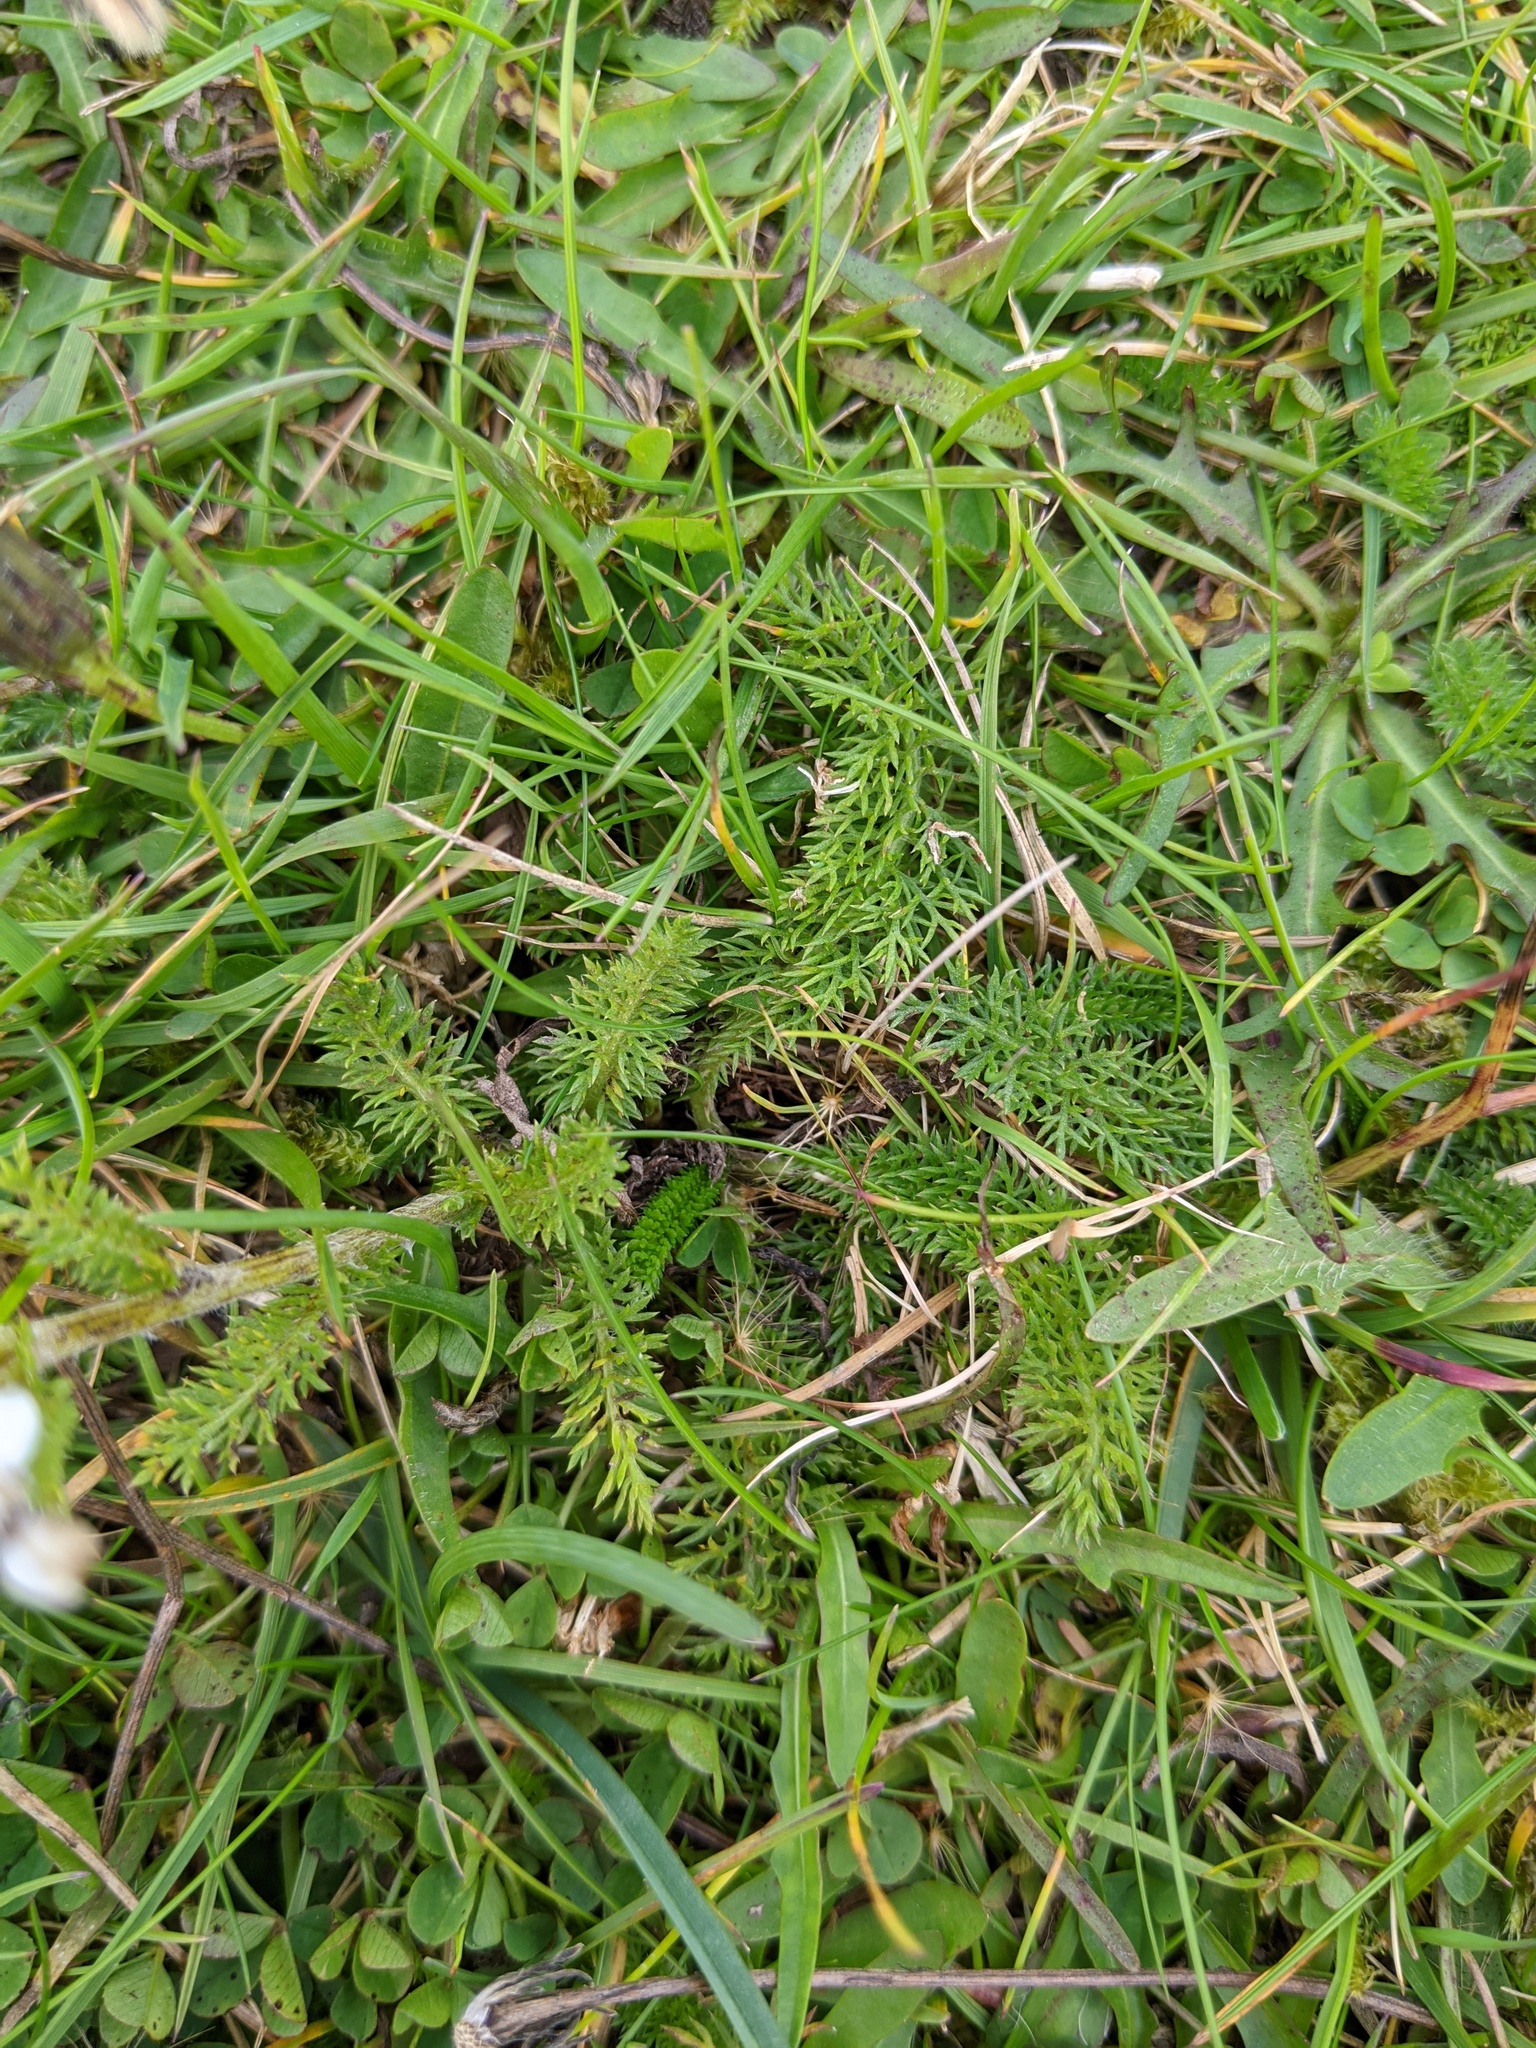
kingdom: Plantae
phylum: Tracheophyta
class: Magnoliopsida
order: Asterales
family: Asteraceae
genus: Achillea
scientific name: Achillea millefolium
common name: Yarrow
